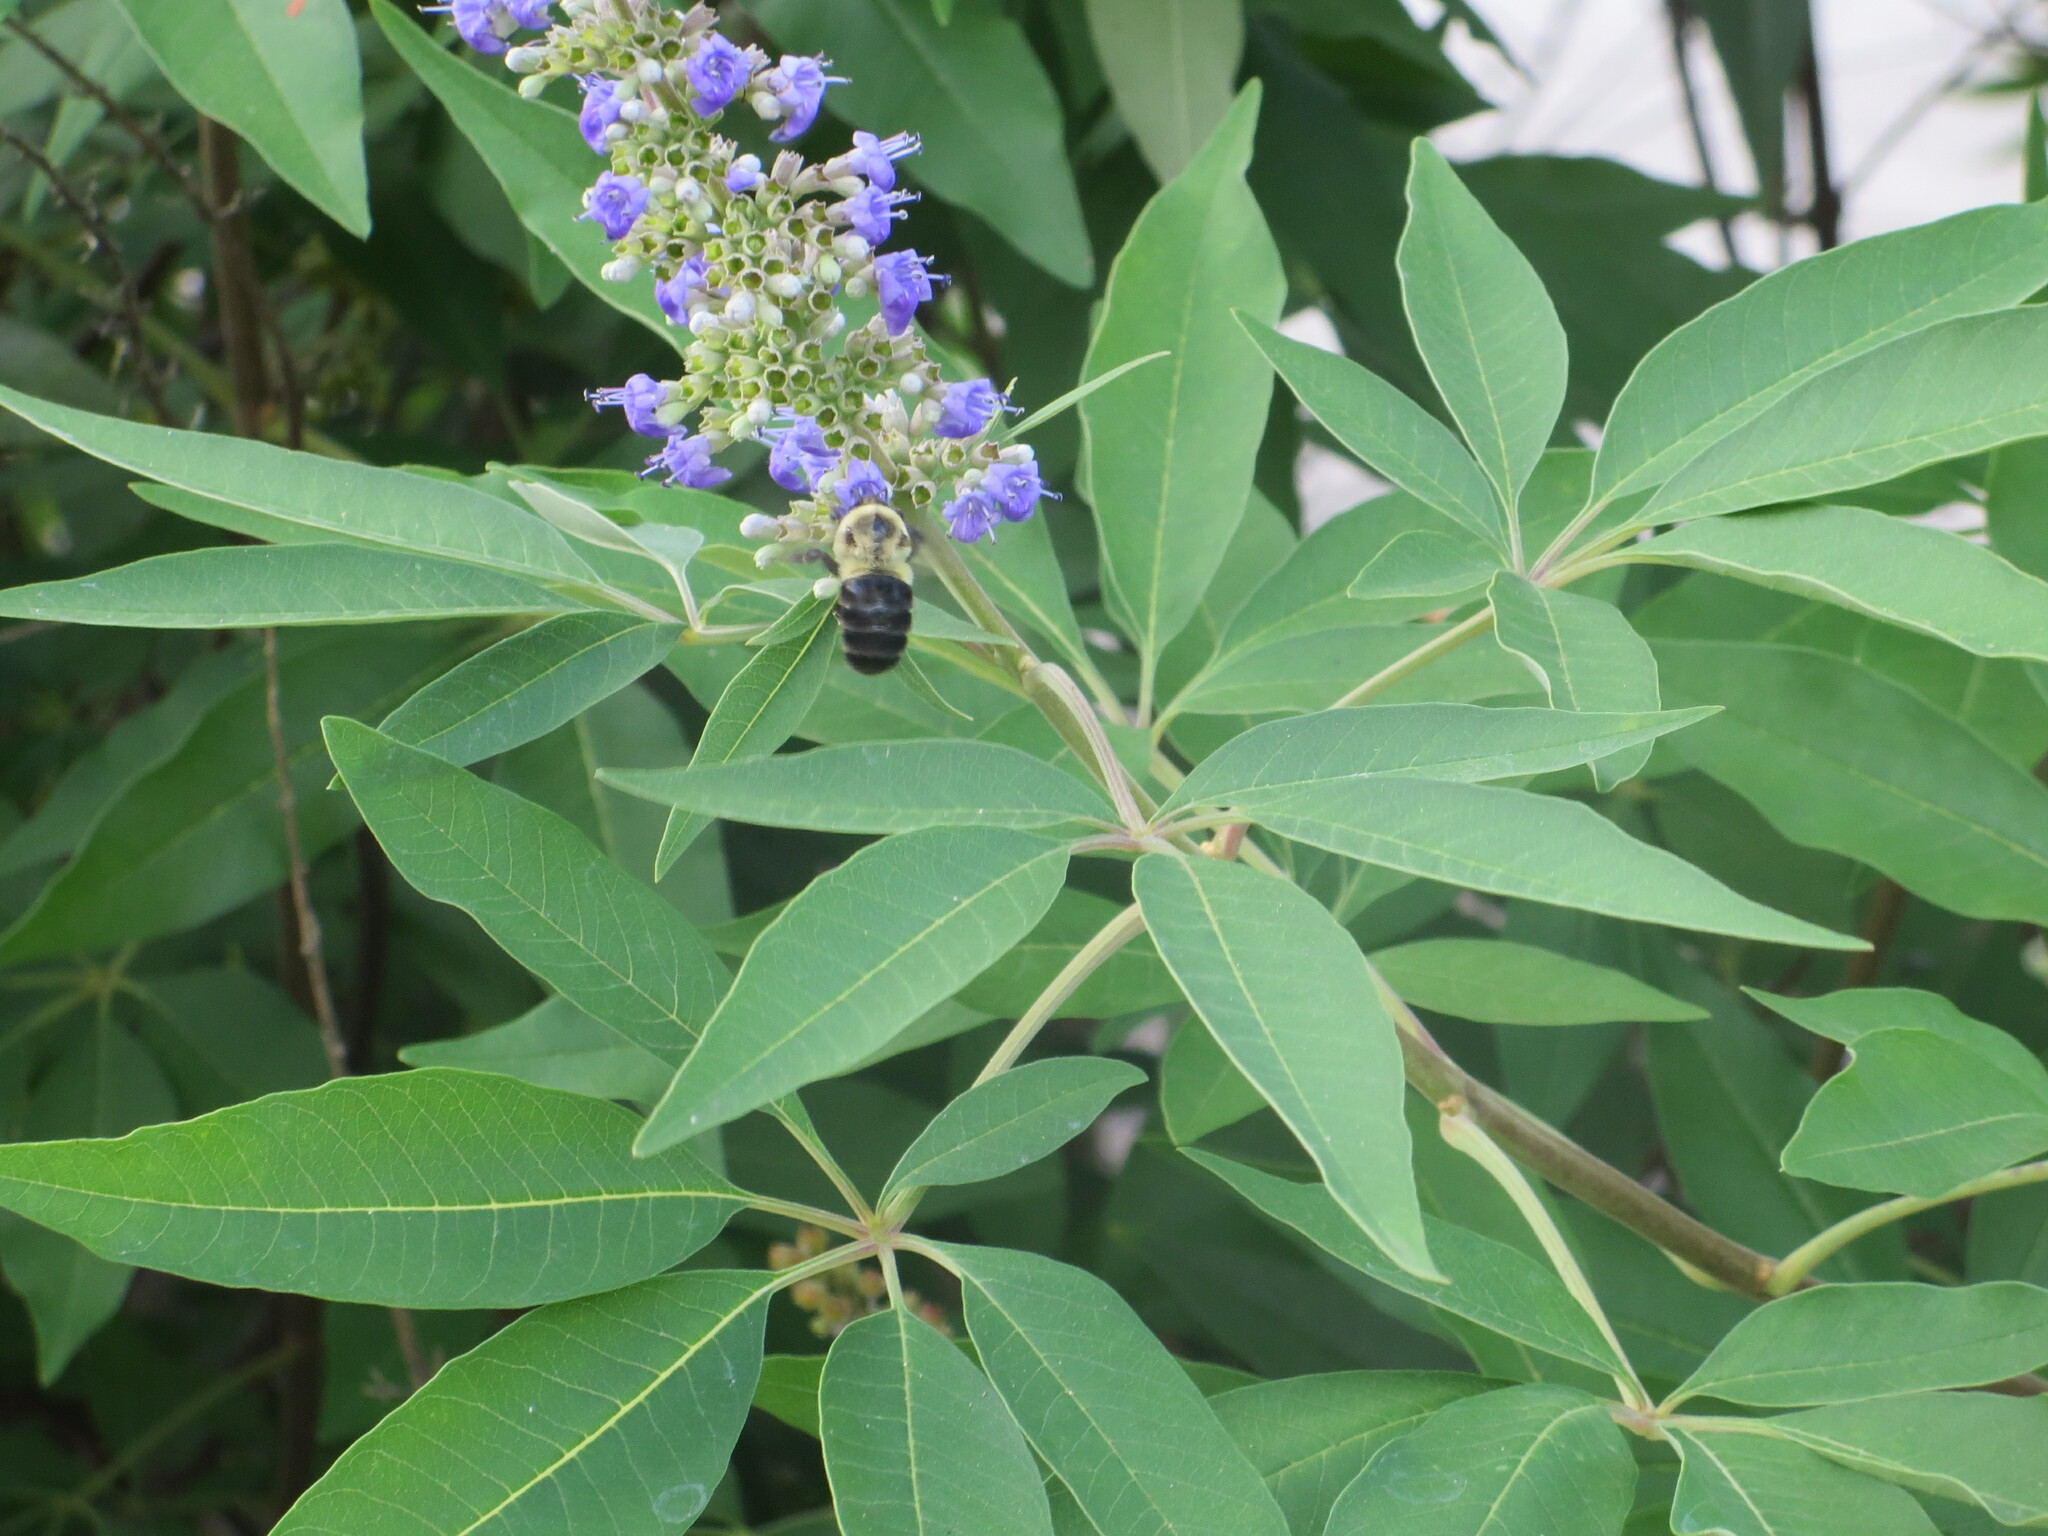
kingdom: Animalia
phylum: Arthropoda
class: Insecta
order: Hymenoptera
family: Apidae
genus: Bombus
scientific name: Bombus impatiens
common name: Common eastern bumble bee
